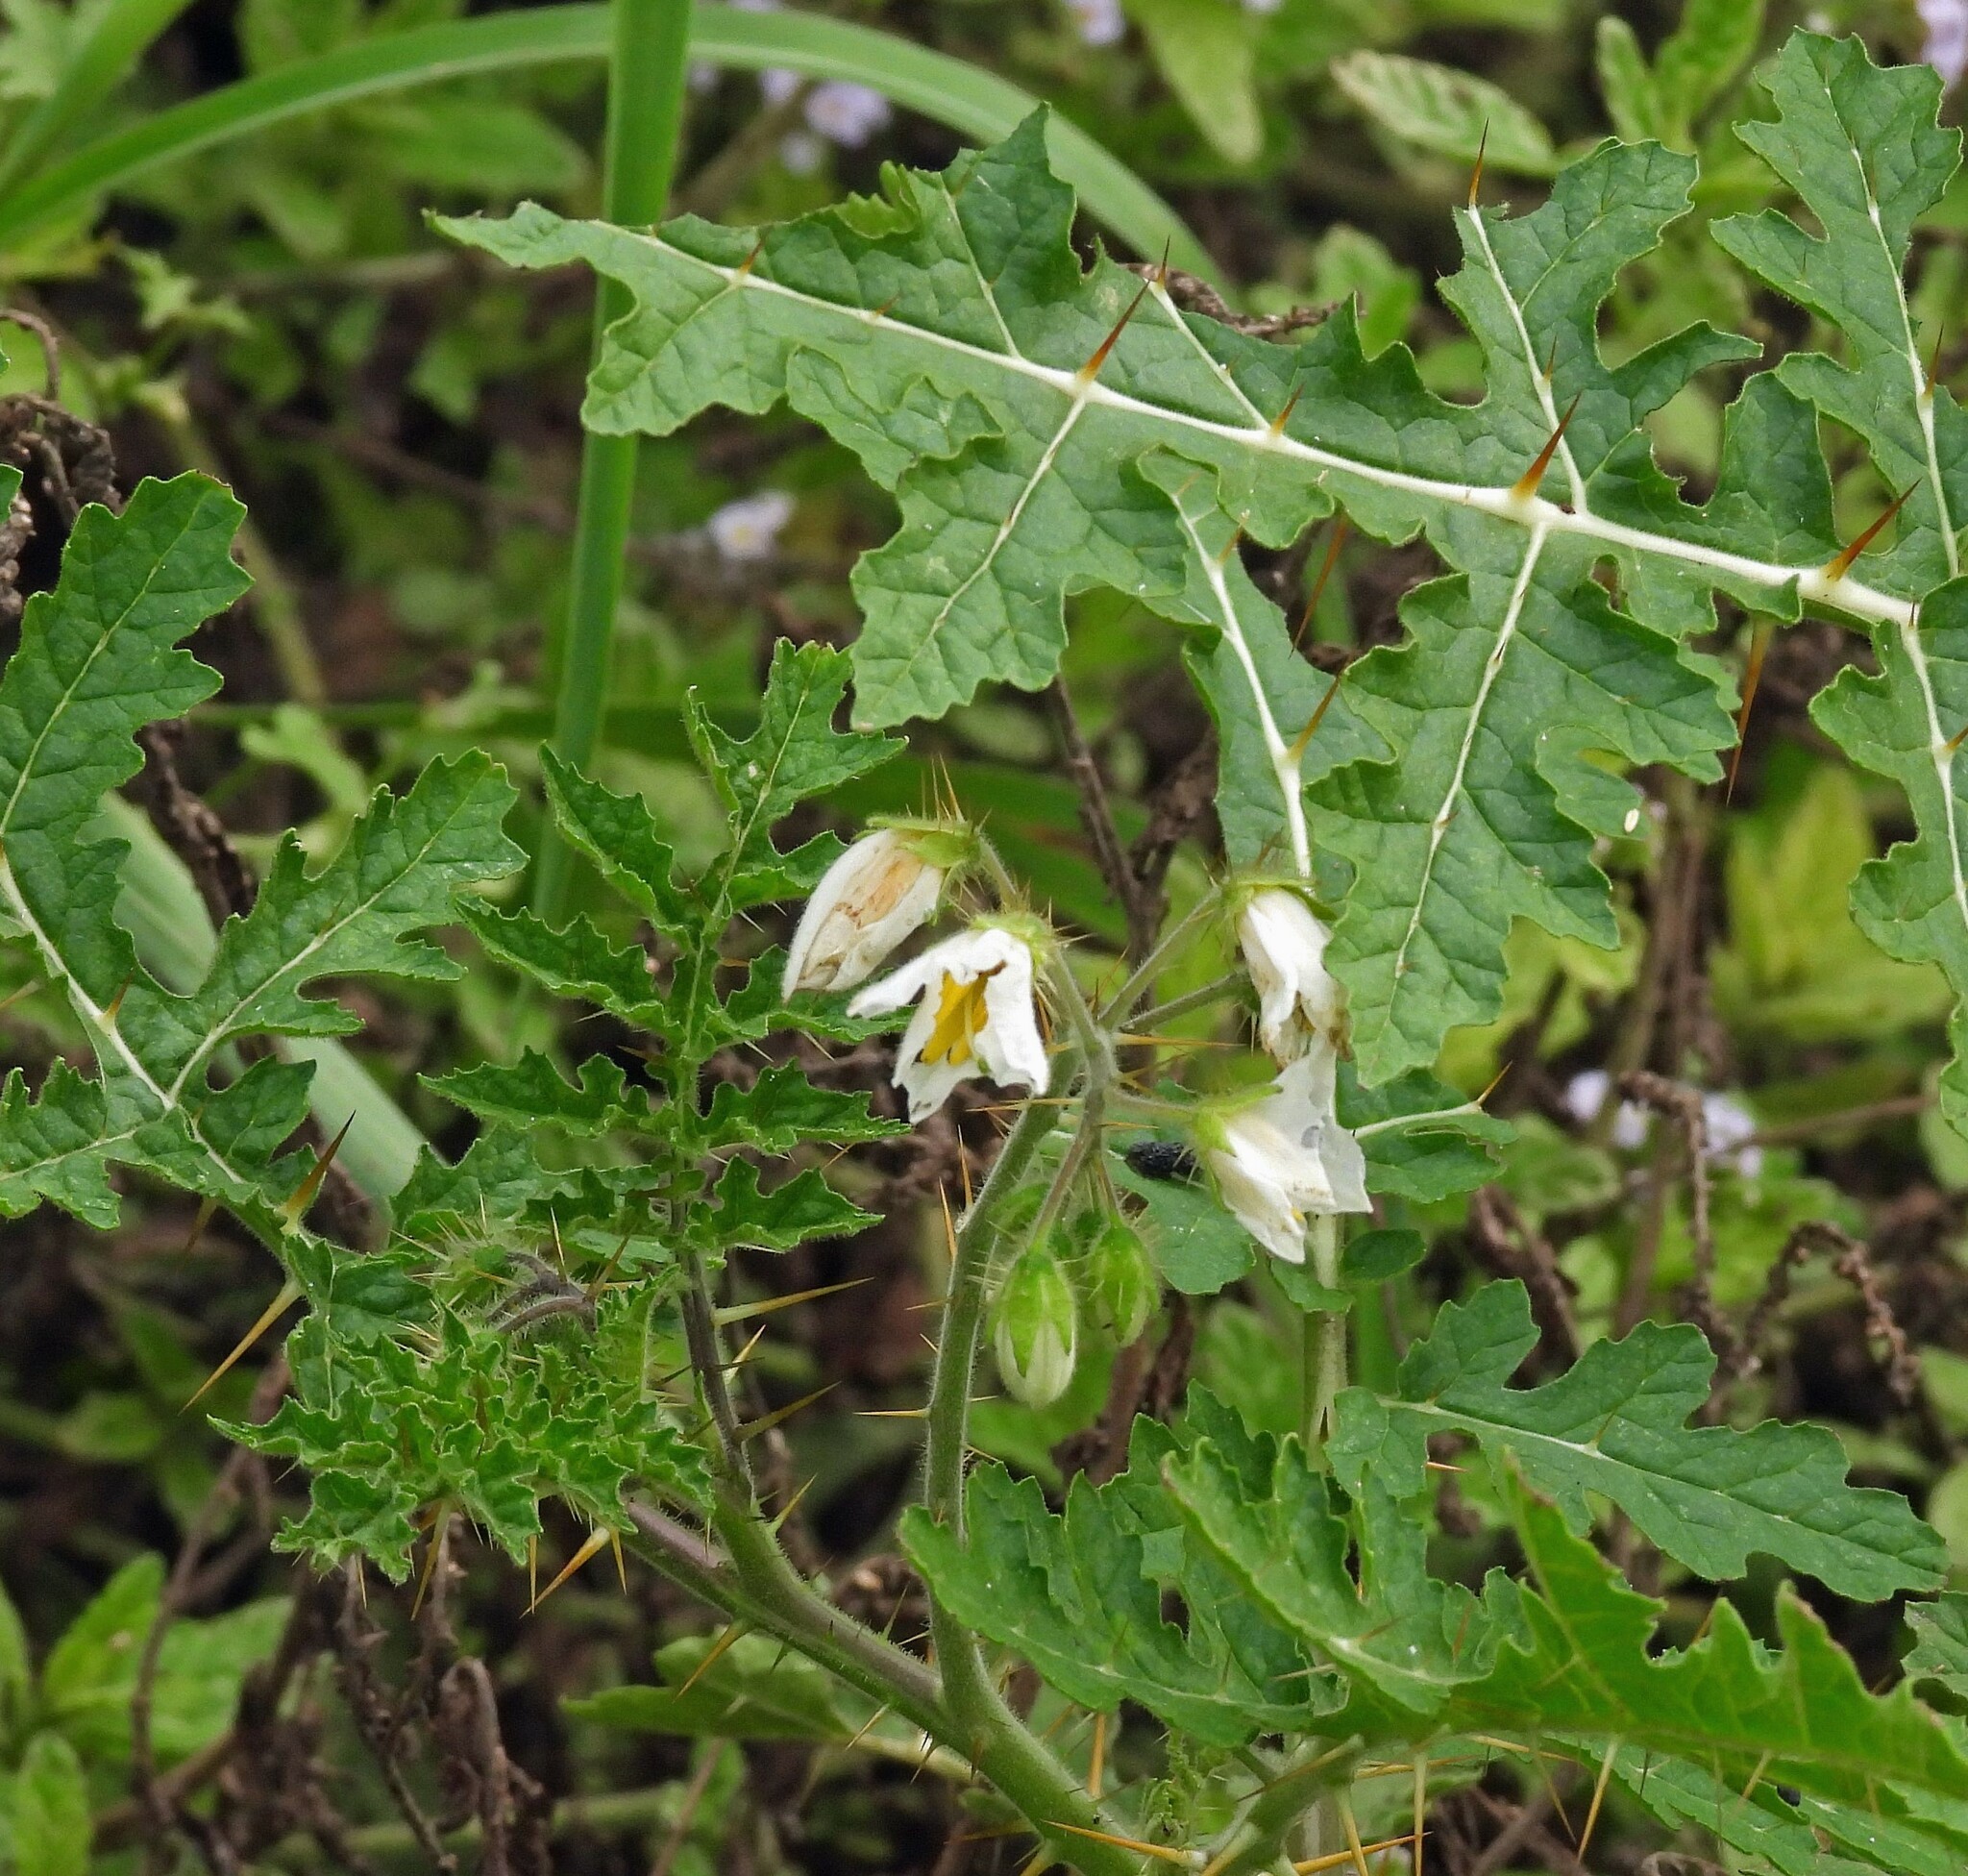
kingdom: Plantae
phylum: Tracheophyta
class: Magnoliopsida
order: Solanales
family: Solanaceae
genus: Solanum
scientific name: Solanum sisymbriifolium
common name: Red buffalo-bur
